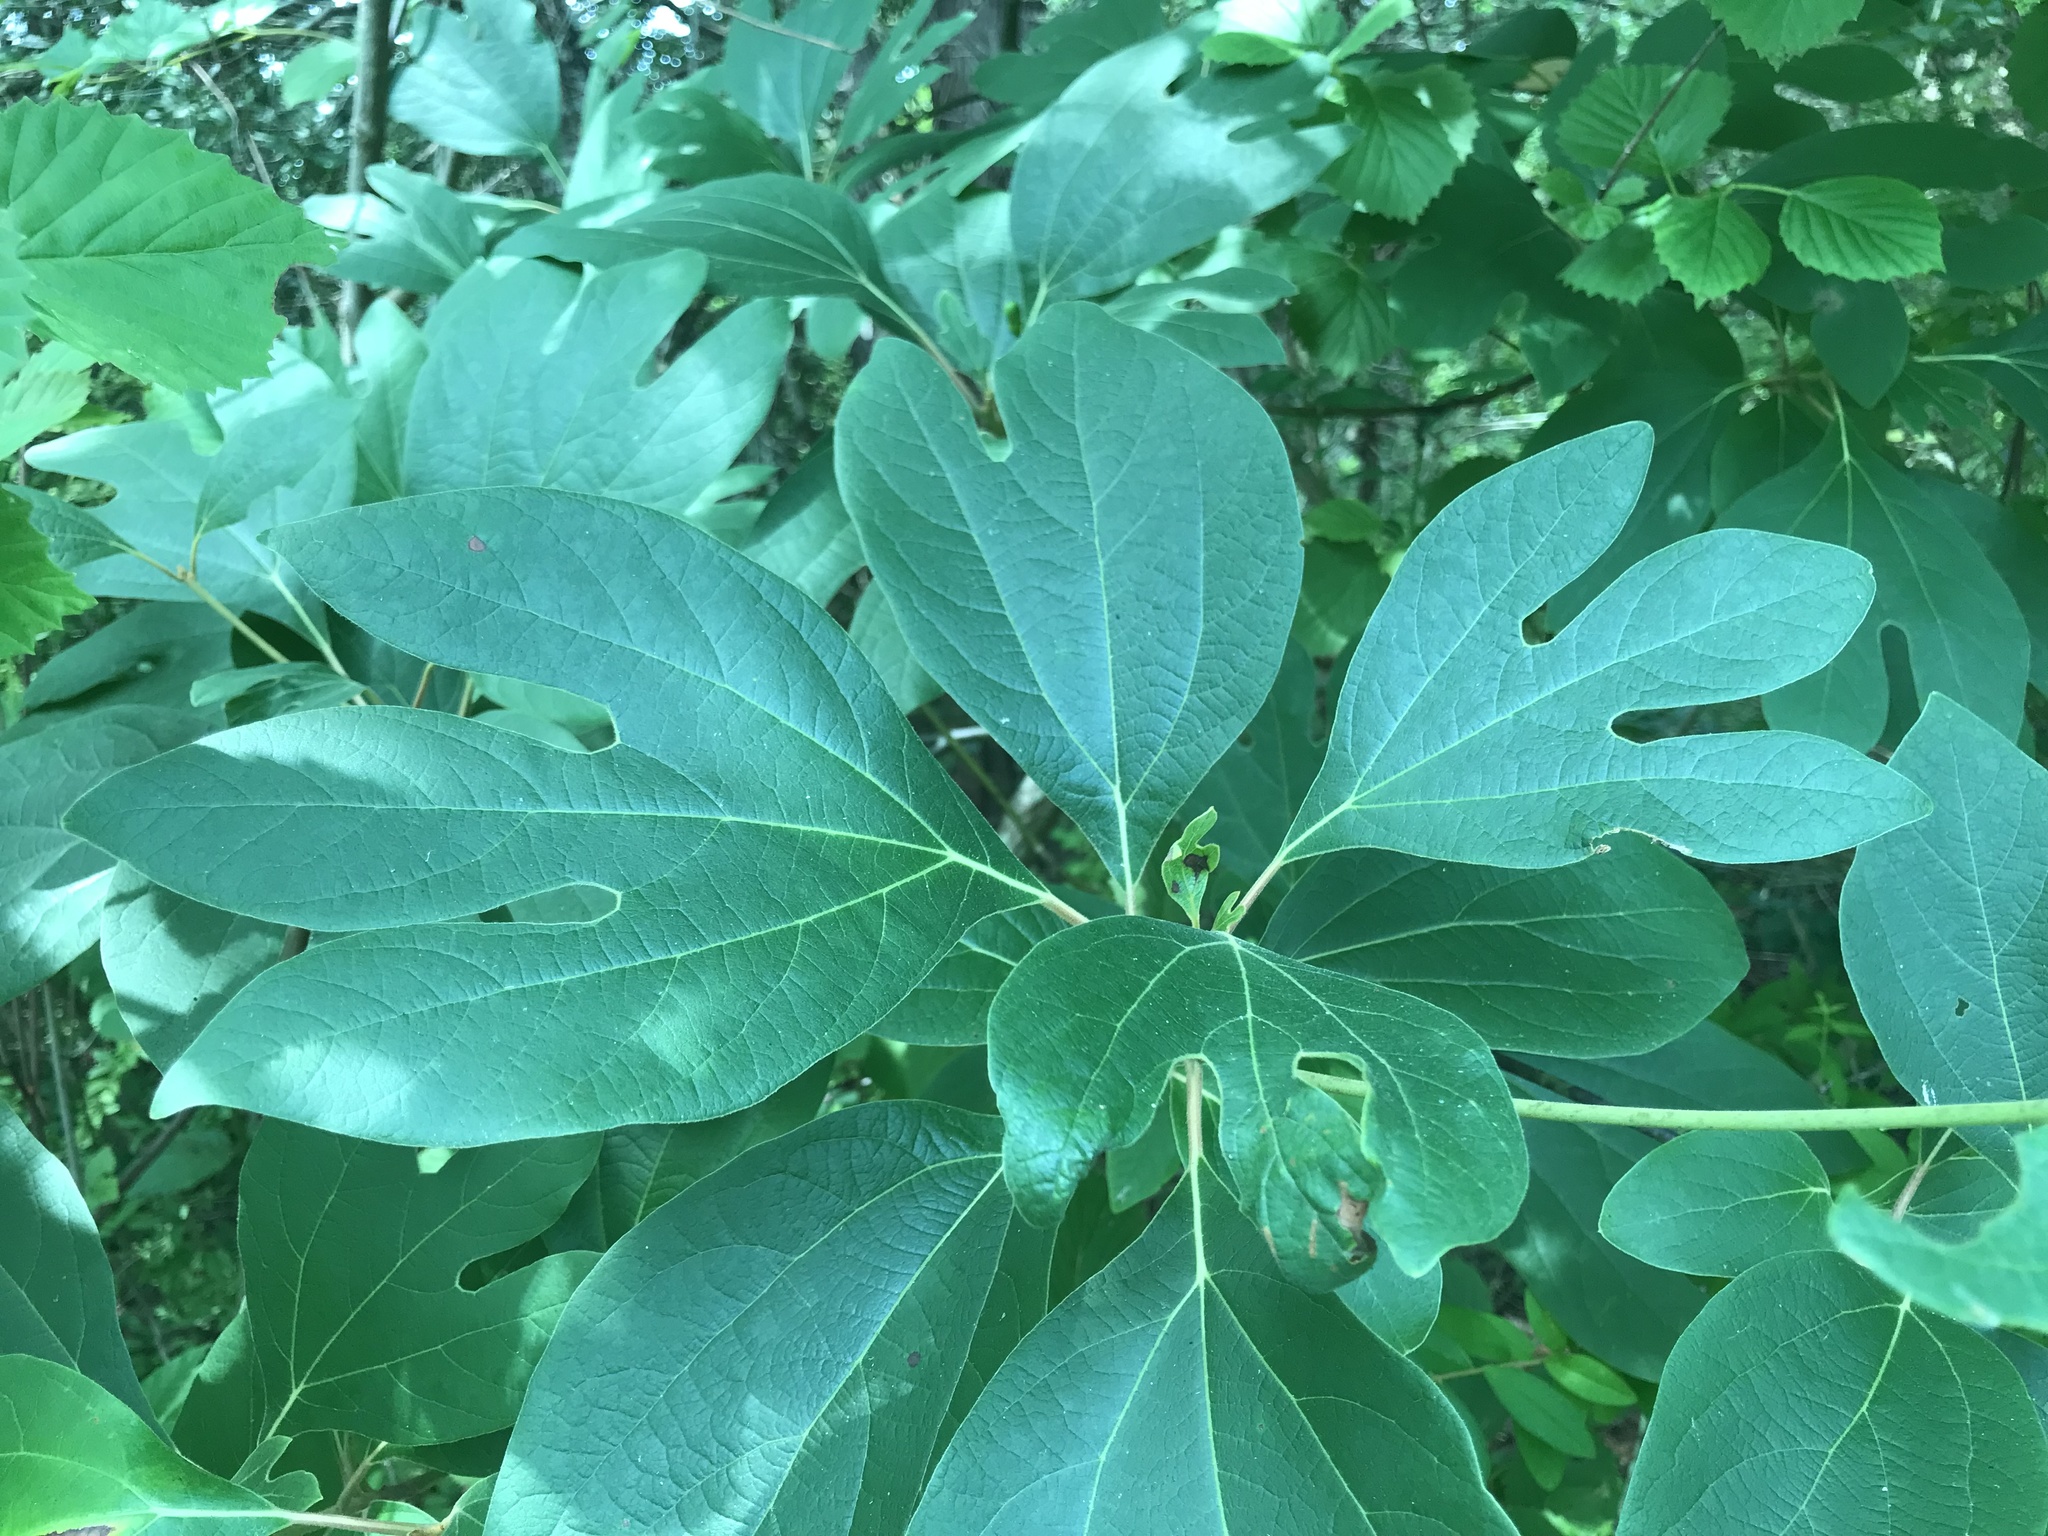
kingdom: Plantae
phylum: Tracheophyta
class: Magnoliopsida
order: Laurales
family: Lauraceae
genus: Sassafras
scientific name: Sassafras albidum
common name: Sassafras
